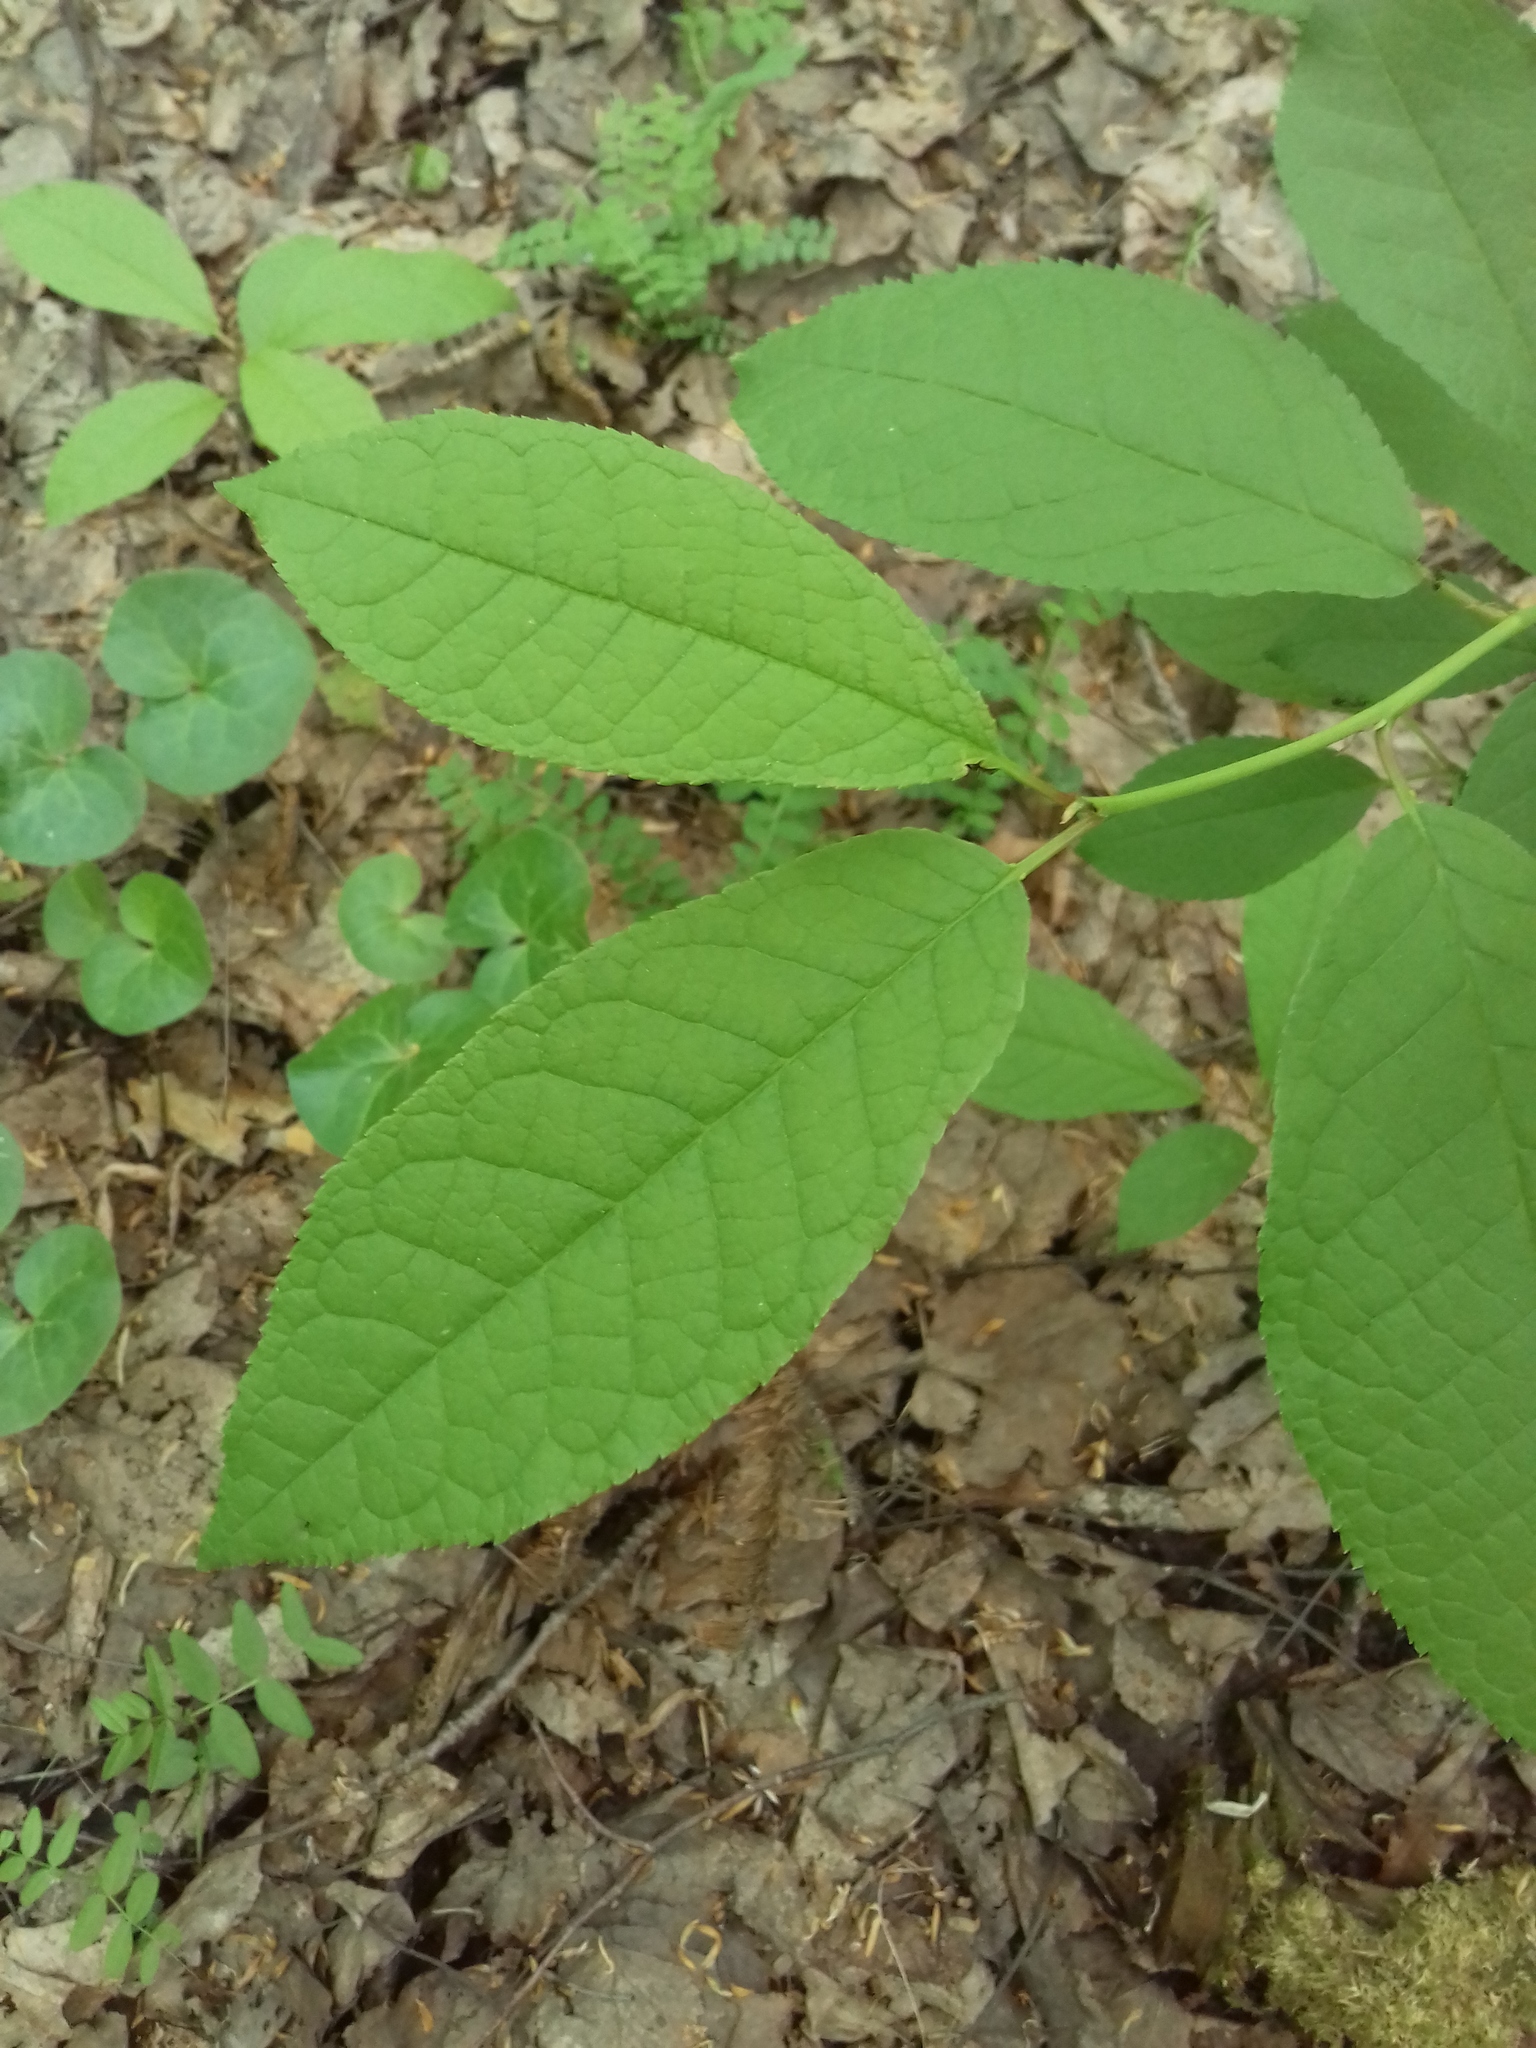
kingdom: Plantae
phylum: Tracheophyta
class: Magnoliopsida
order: Rosales
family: Rosaceae
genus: Prunus
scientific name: Prunus padus
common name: Bird cherry
